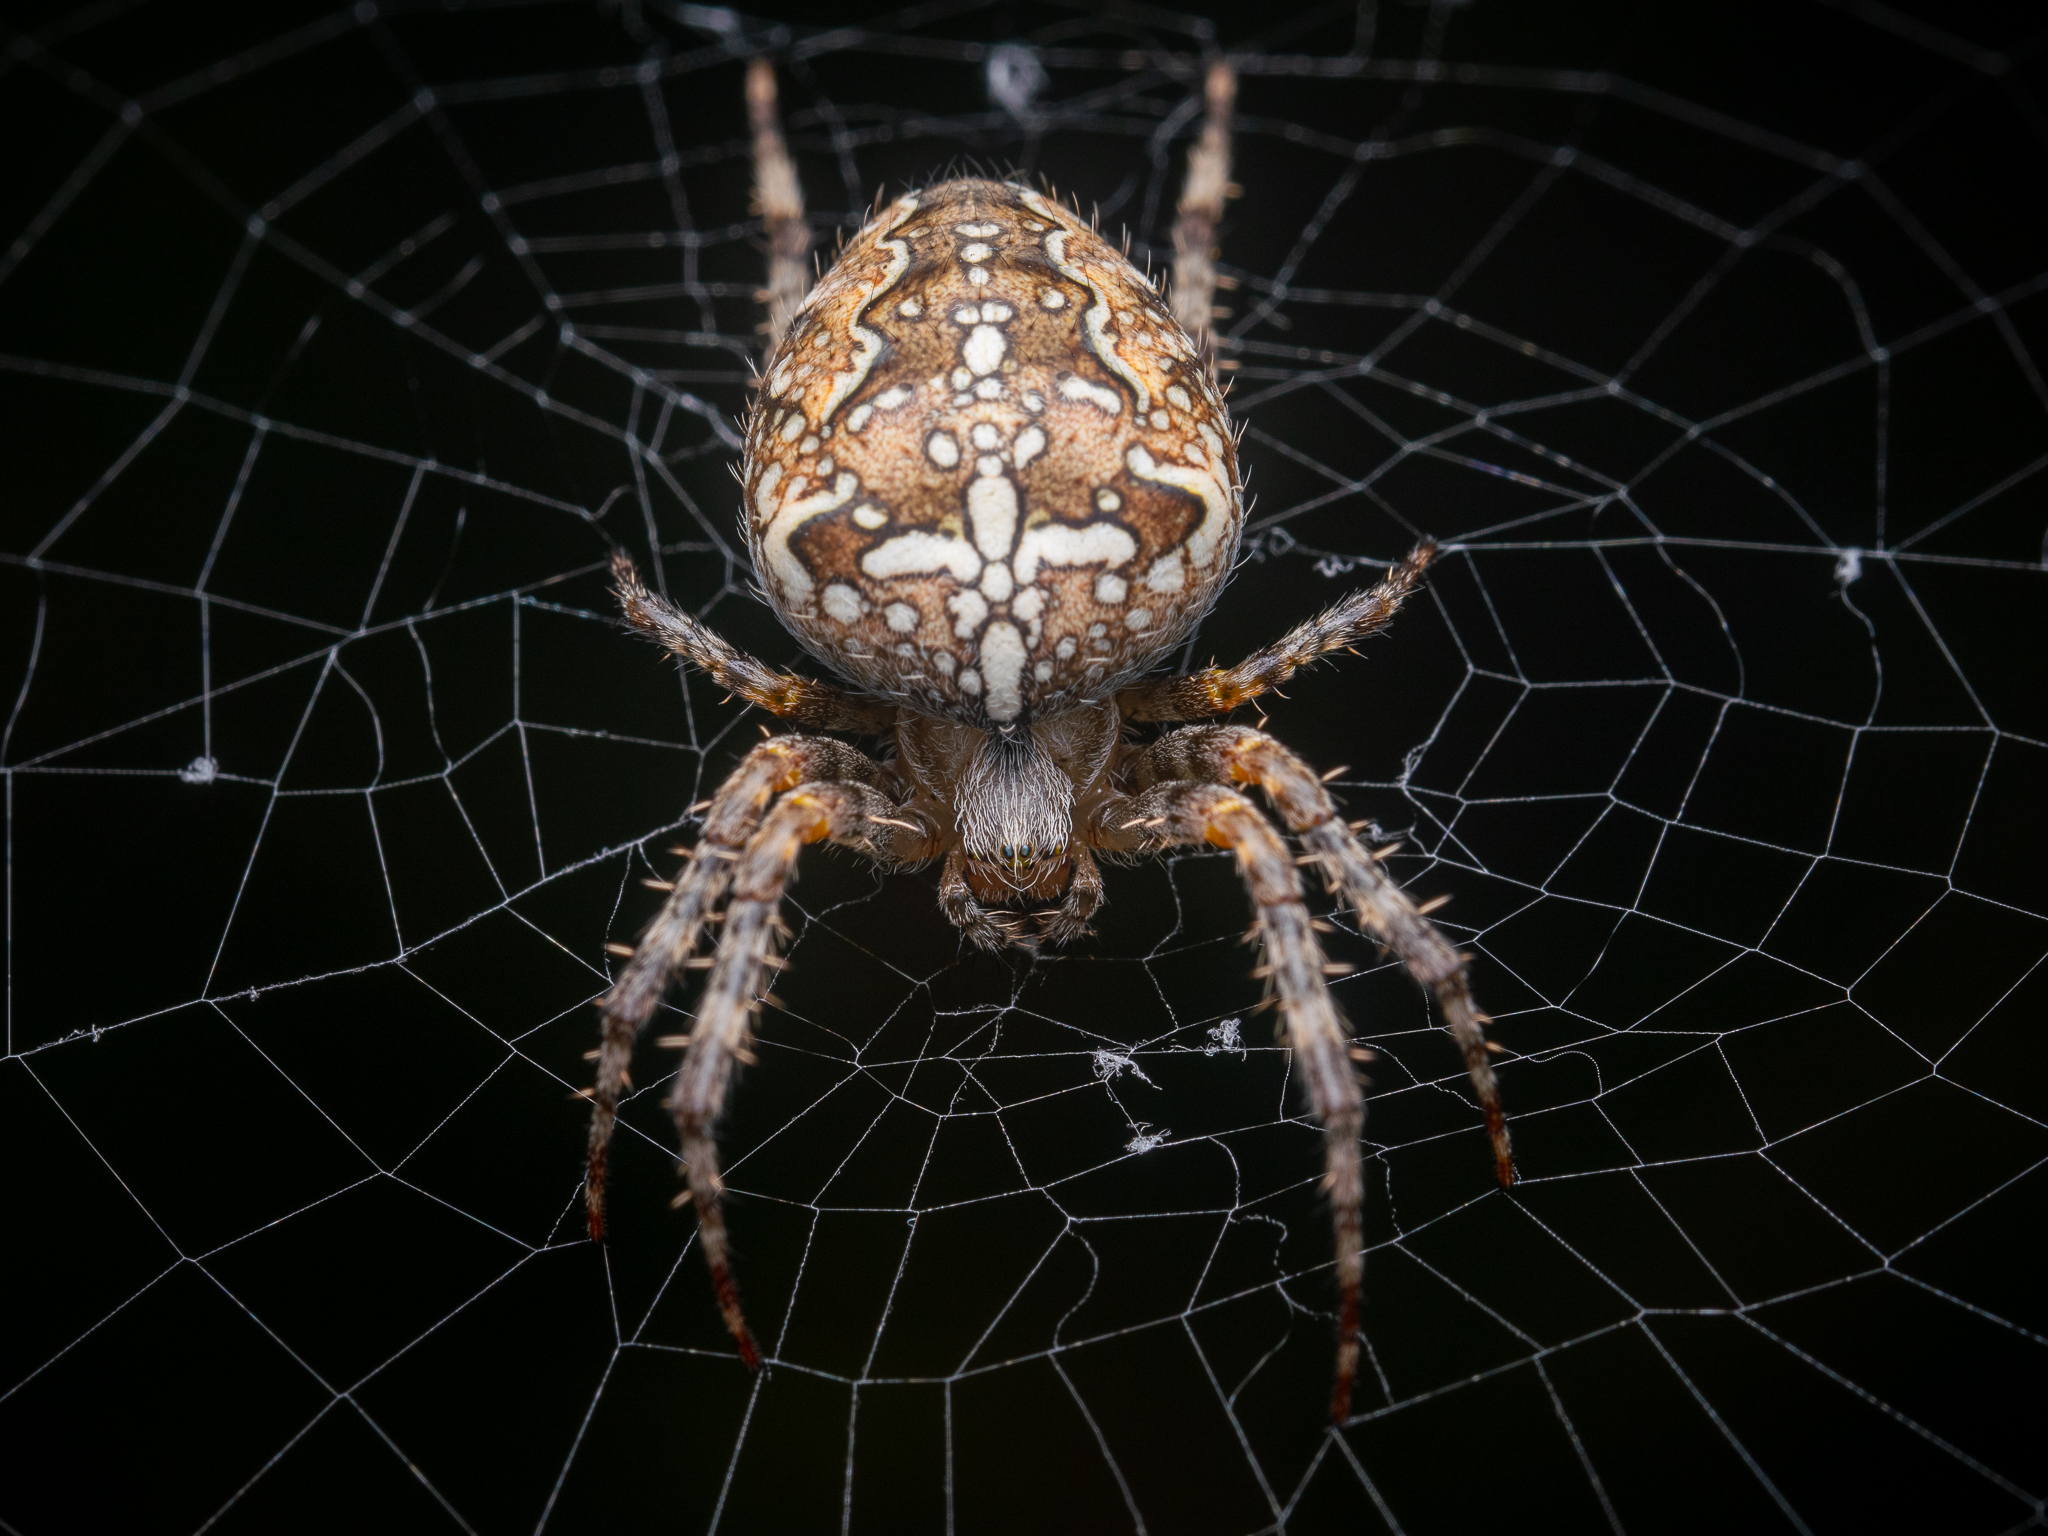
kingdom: Animalia
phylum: Arthropoda
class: Arachnida
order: Araneae
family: Araneidae
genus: Araneus
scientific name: Araneus diadematus
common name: Cross orbweaver
